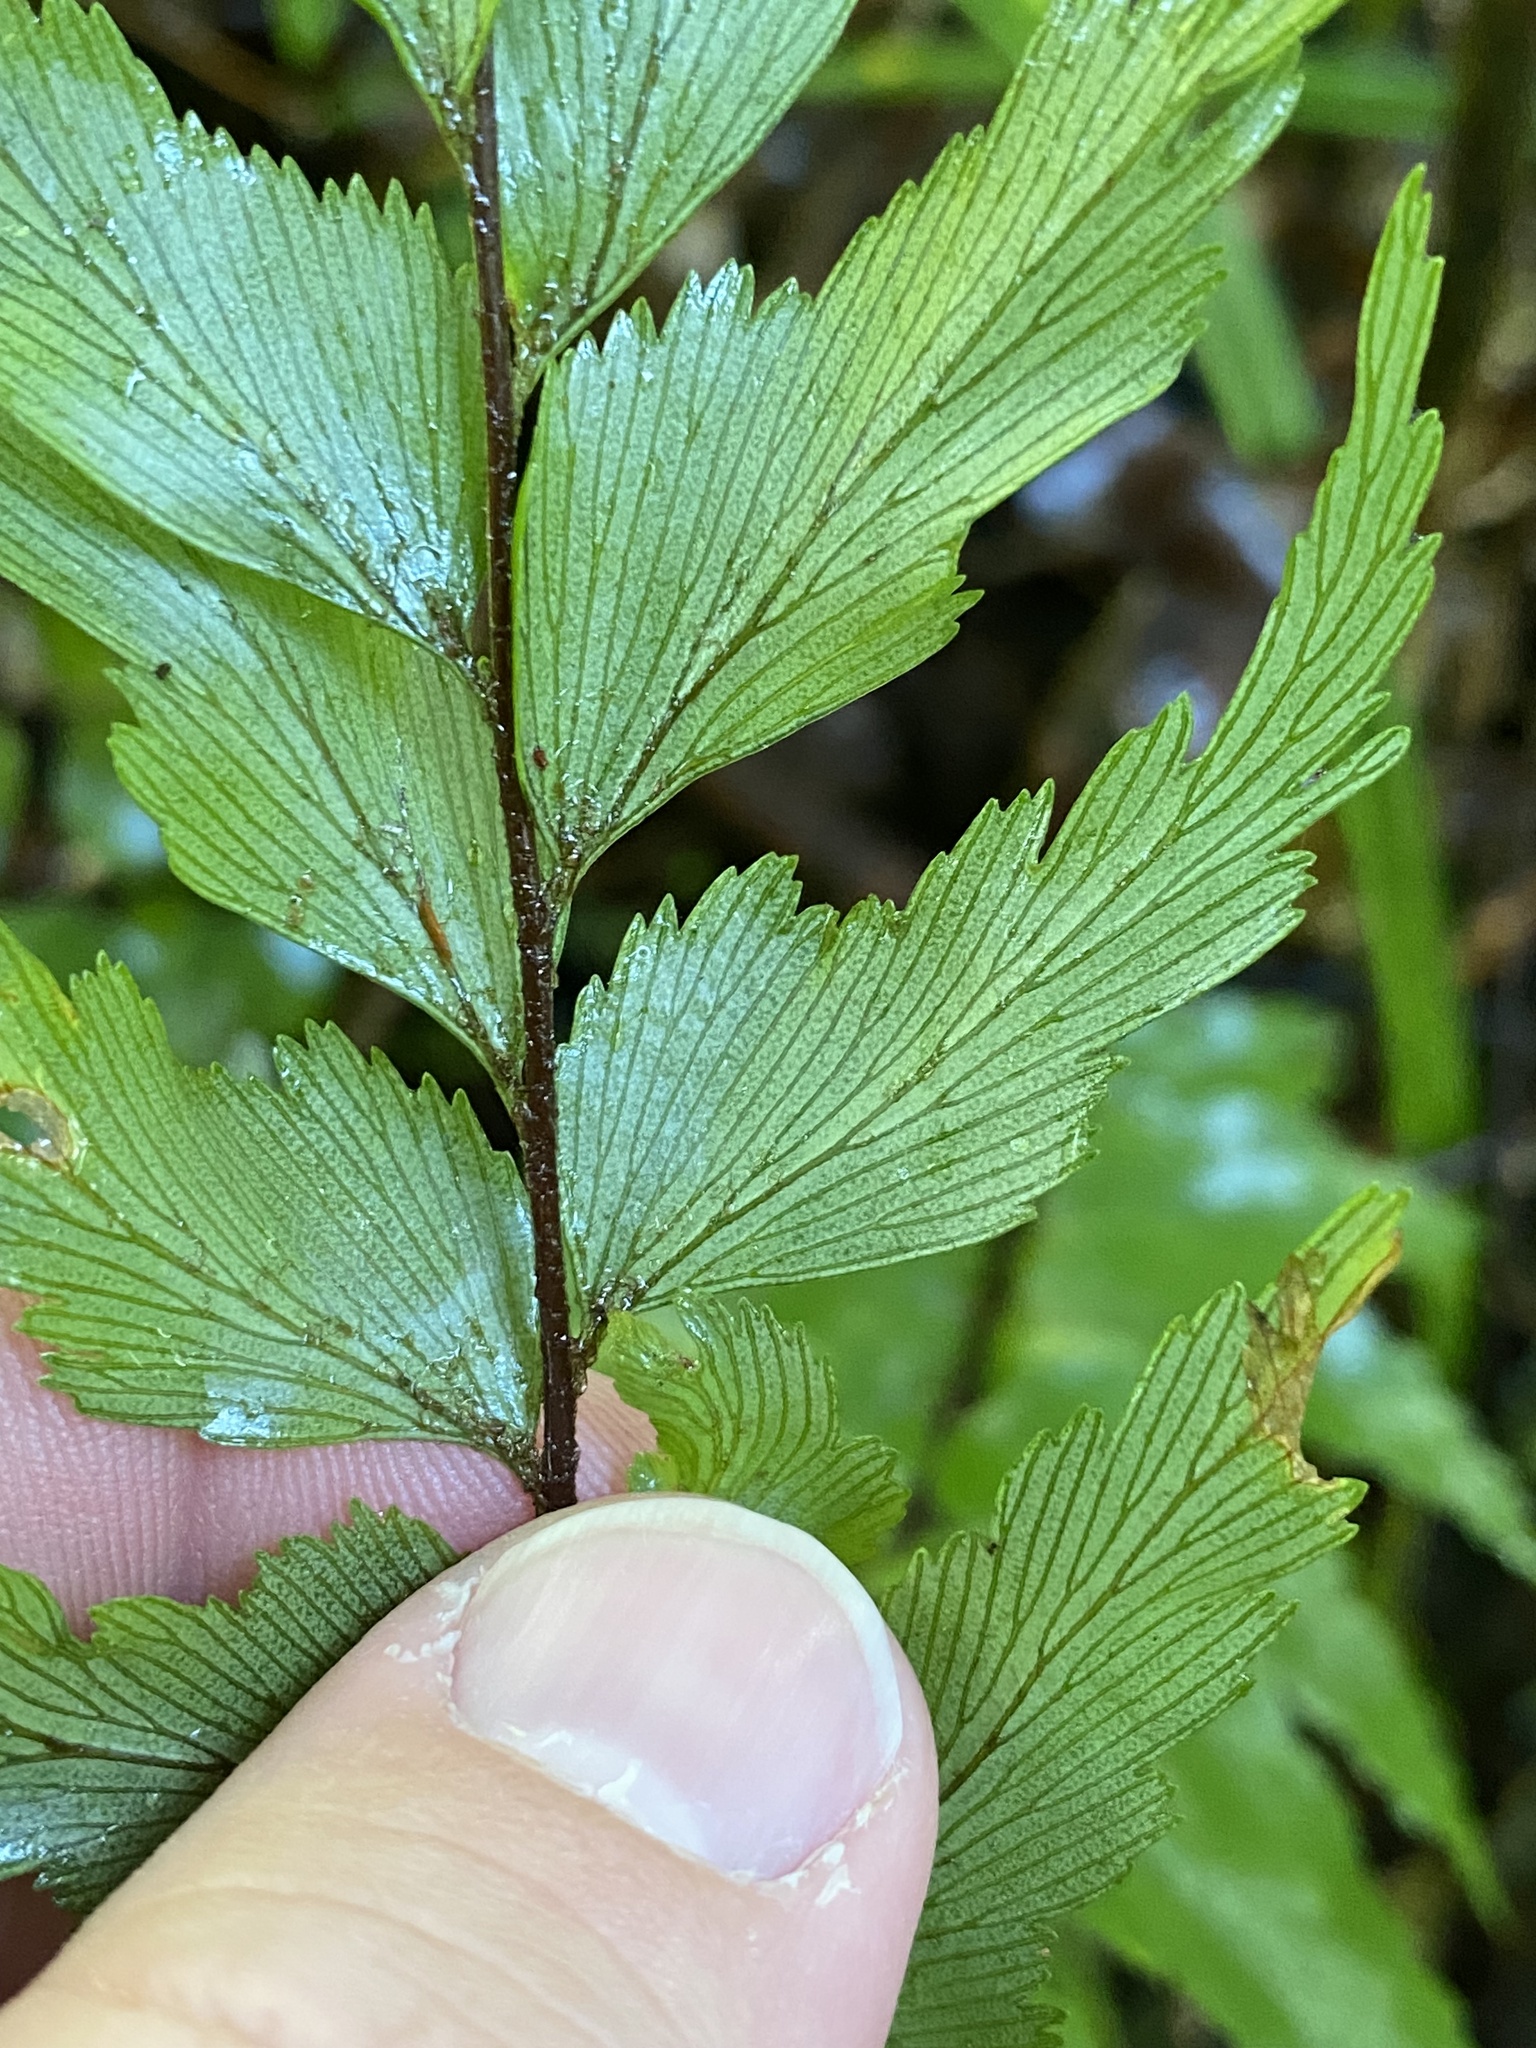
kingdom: Plantae
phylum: Tracheophyta
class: Polypodiopsida
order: Polypodiales
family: Aspleniaceae
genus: Asplenium
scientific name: Asplenium polyodon
